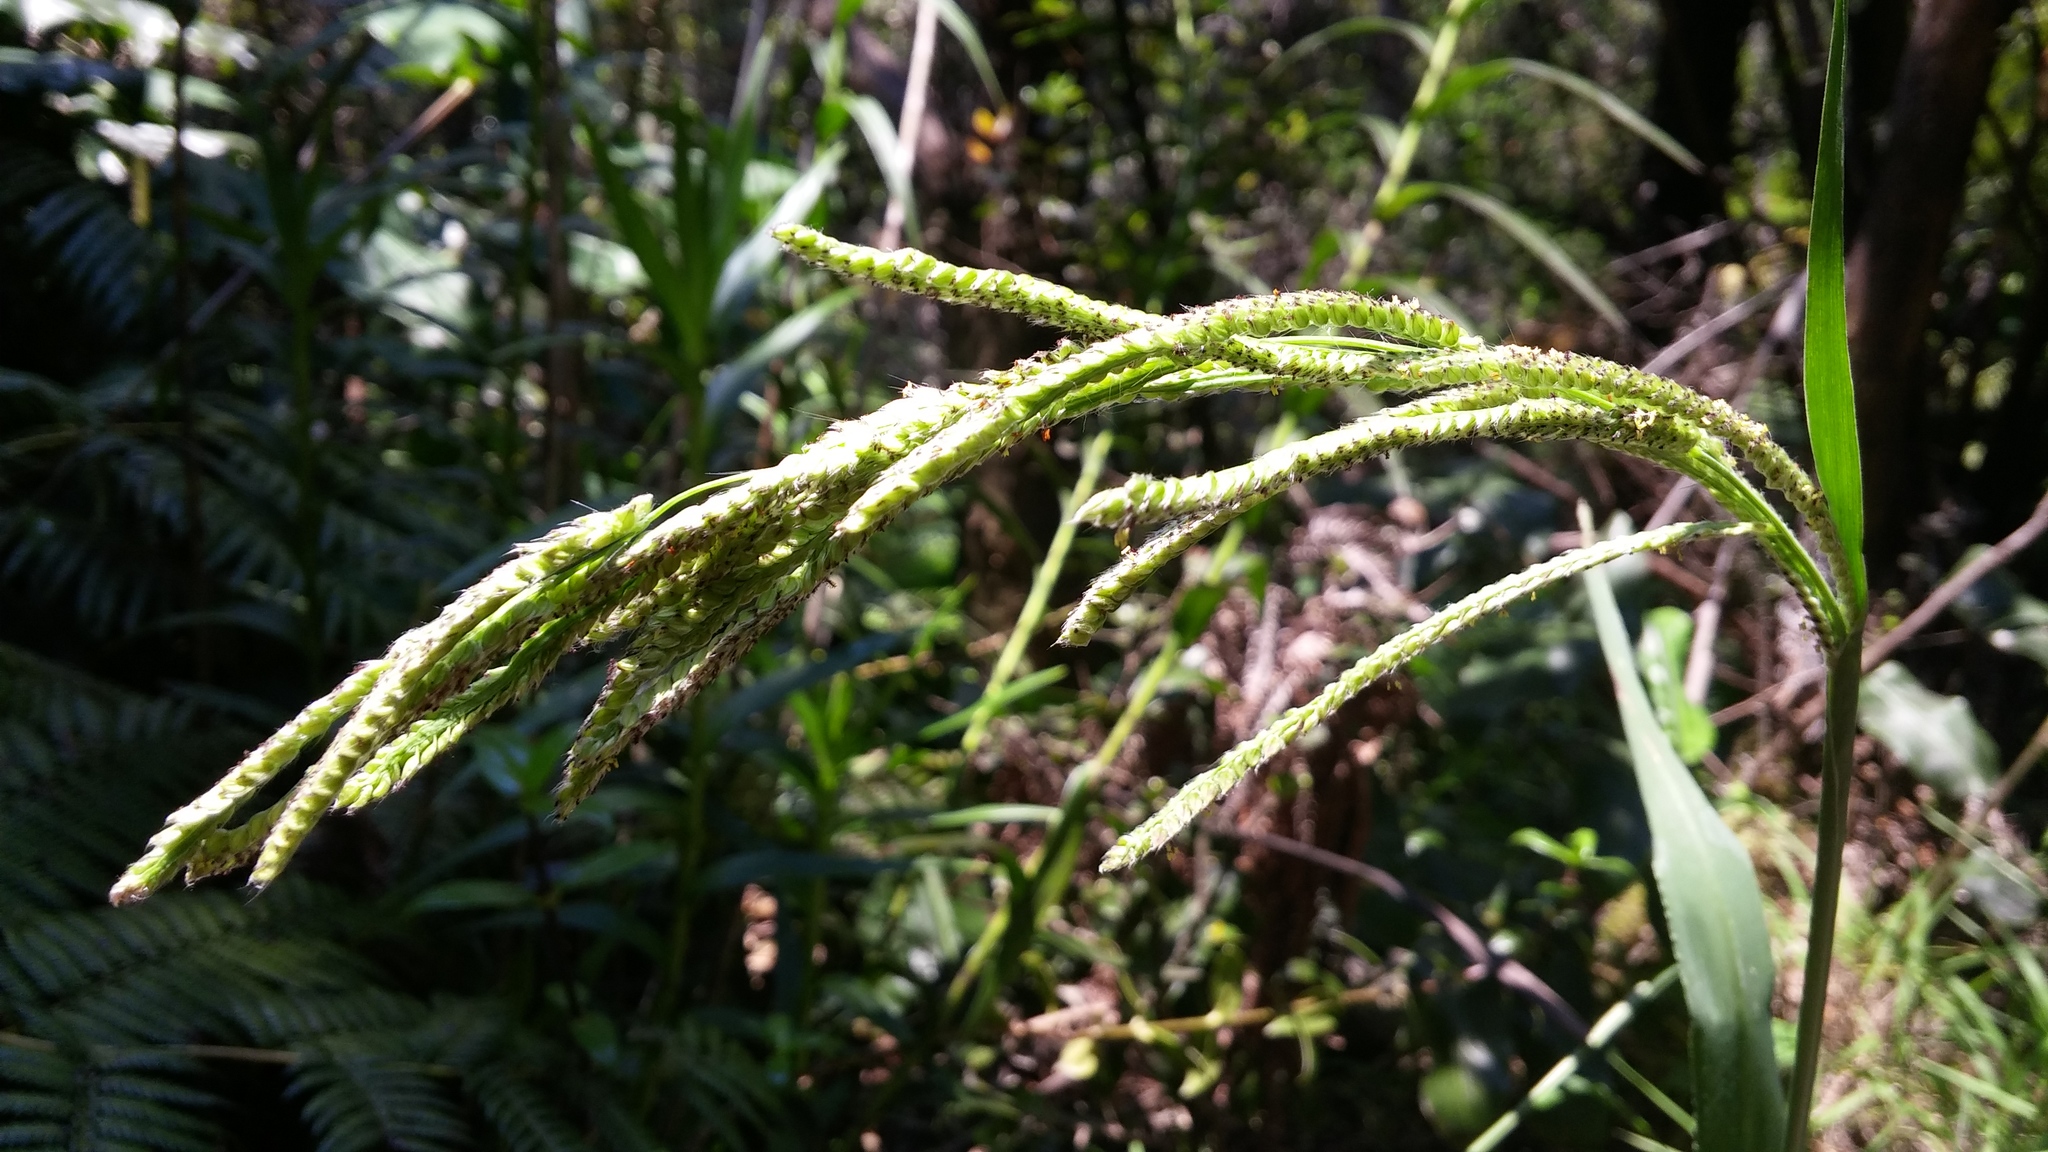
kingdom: Plantae
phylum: Tracheophyta
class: Liliopsida
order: Poales
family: Poaceae
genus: Paspalum
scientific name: Paspalum urvillei
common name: Vasey's grass
